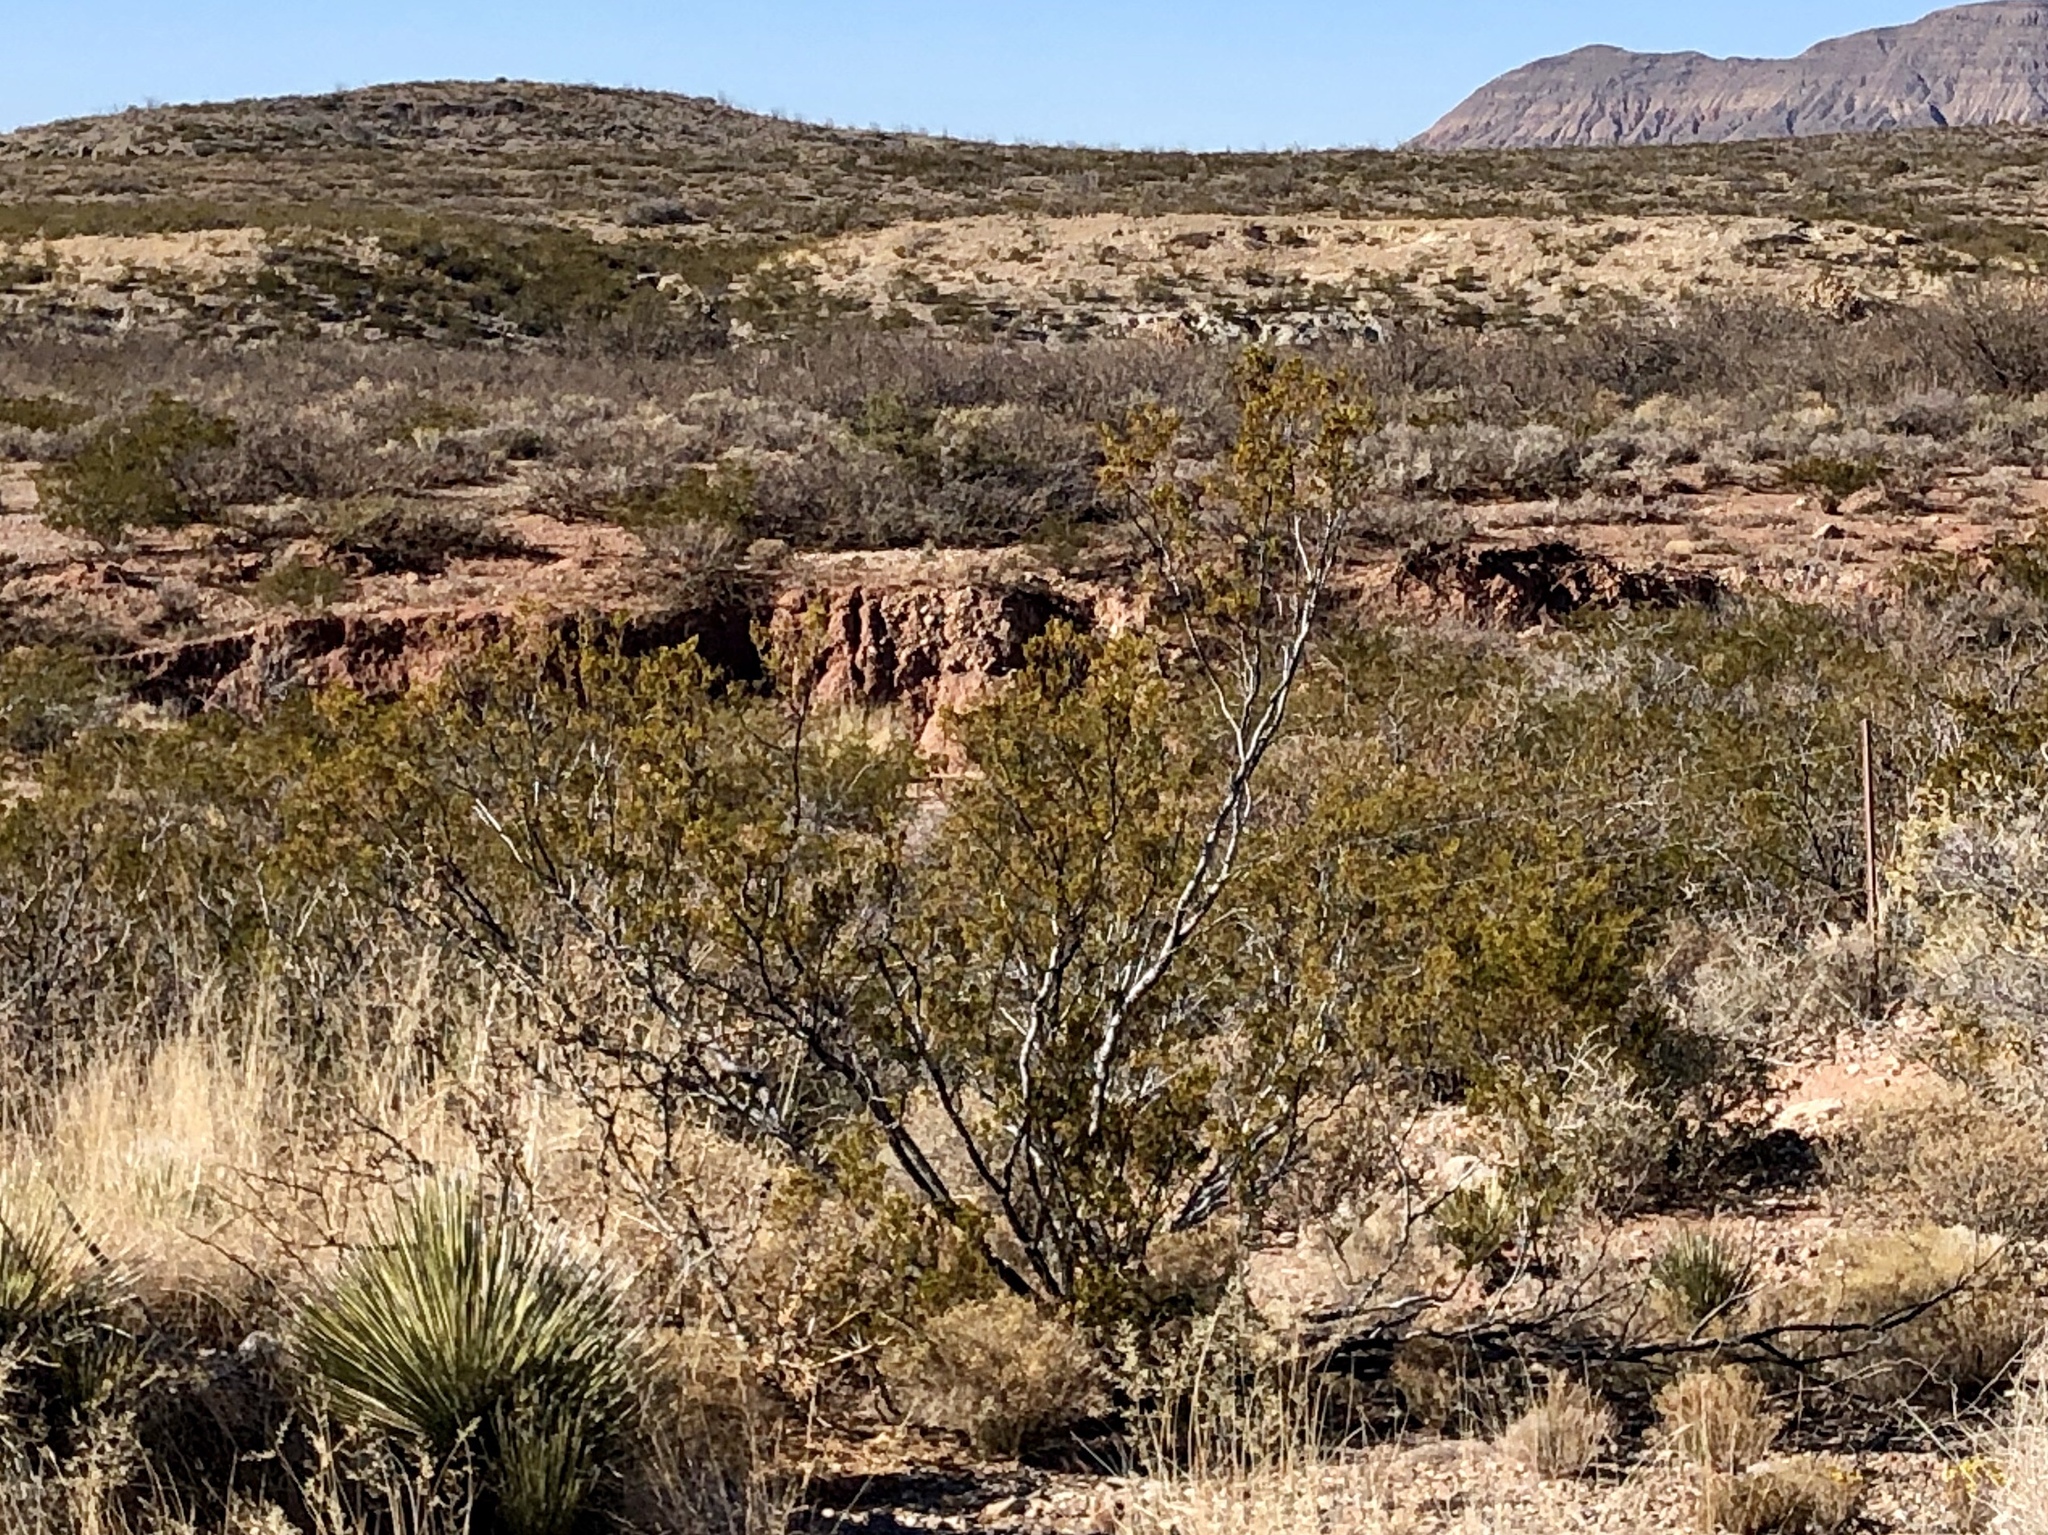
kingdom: Plantae
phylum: Tracheophyta
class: Magnoliopsida
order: Zygophyllales
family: Zygophyllaceae
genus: Larrea
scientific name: Larrea tridentata
